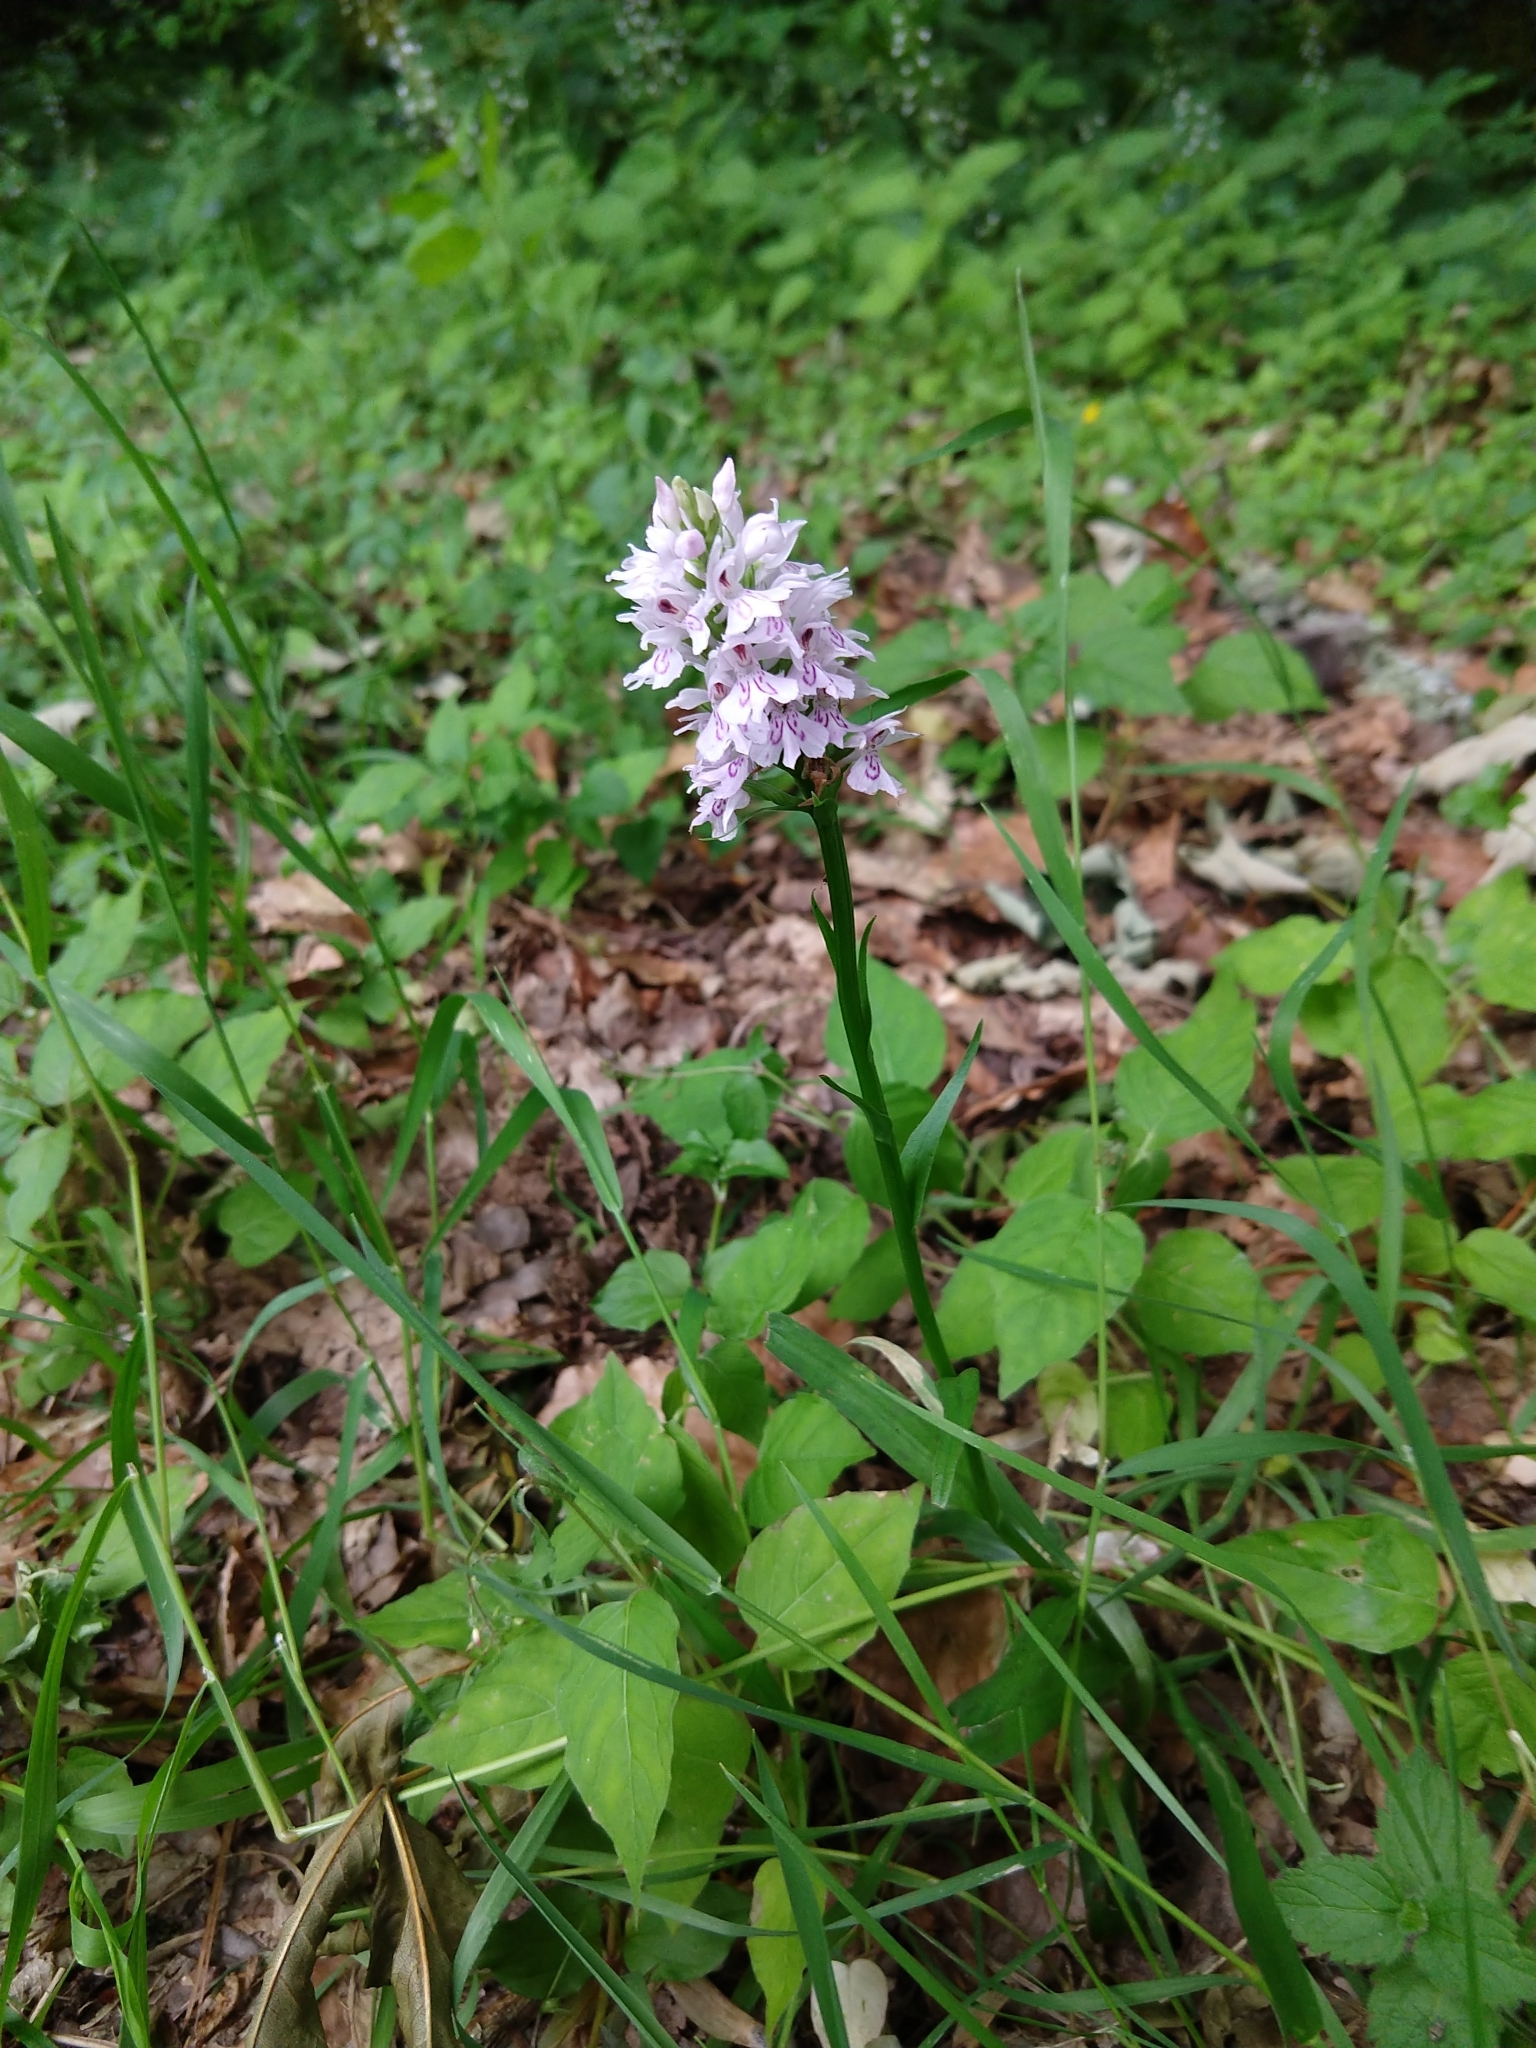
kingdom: Plantae
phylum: Tracheophyta
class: Liliopsida
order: Asparagales
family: Orchidaceae
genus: Dactylorhiza
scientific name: Dactylorhiza maculata
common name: Heath spotted-orchid
